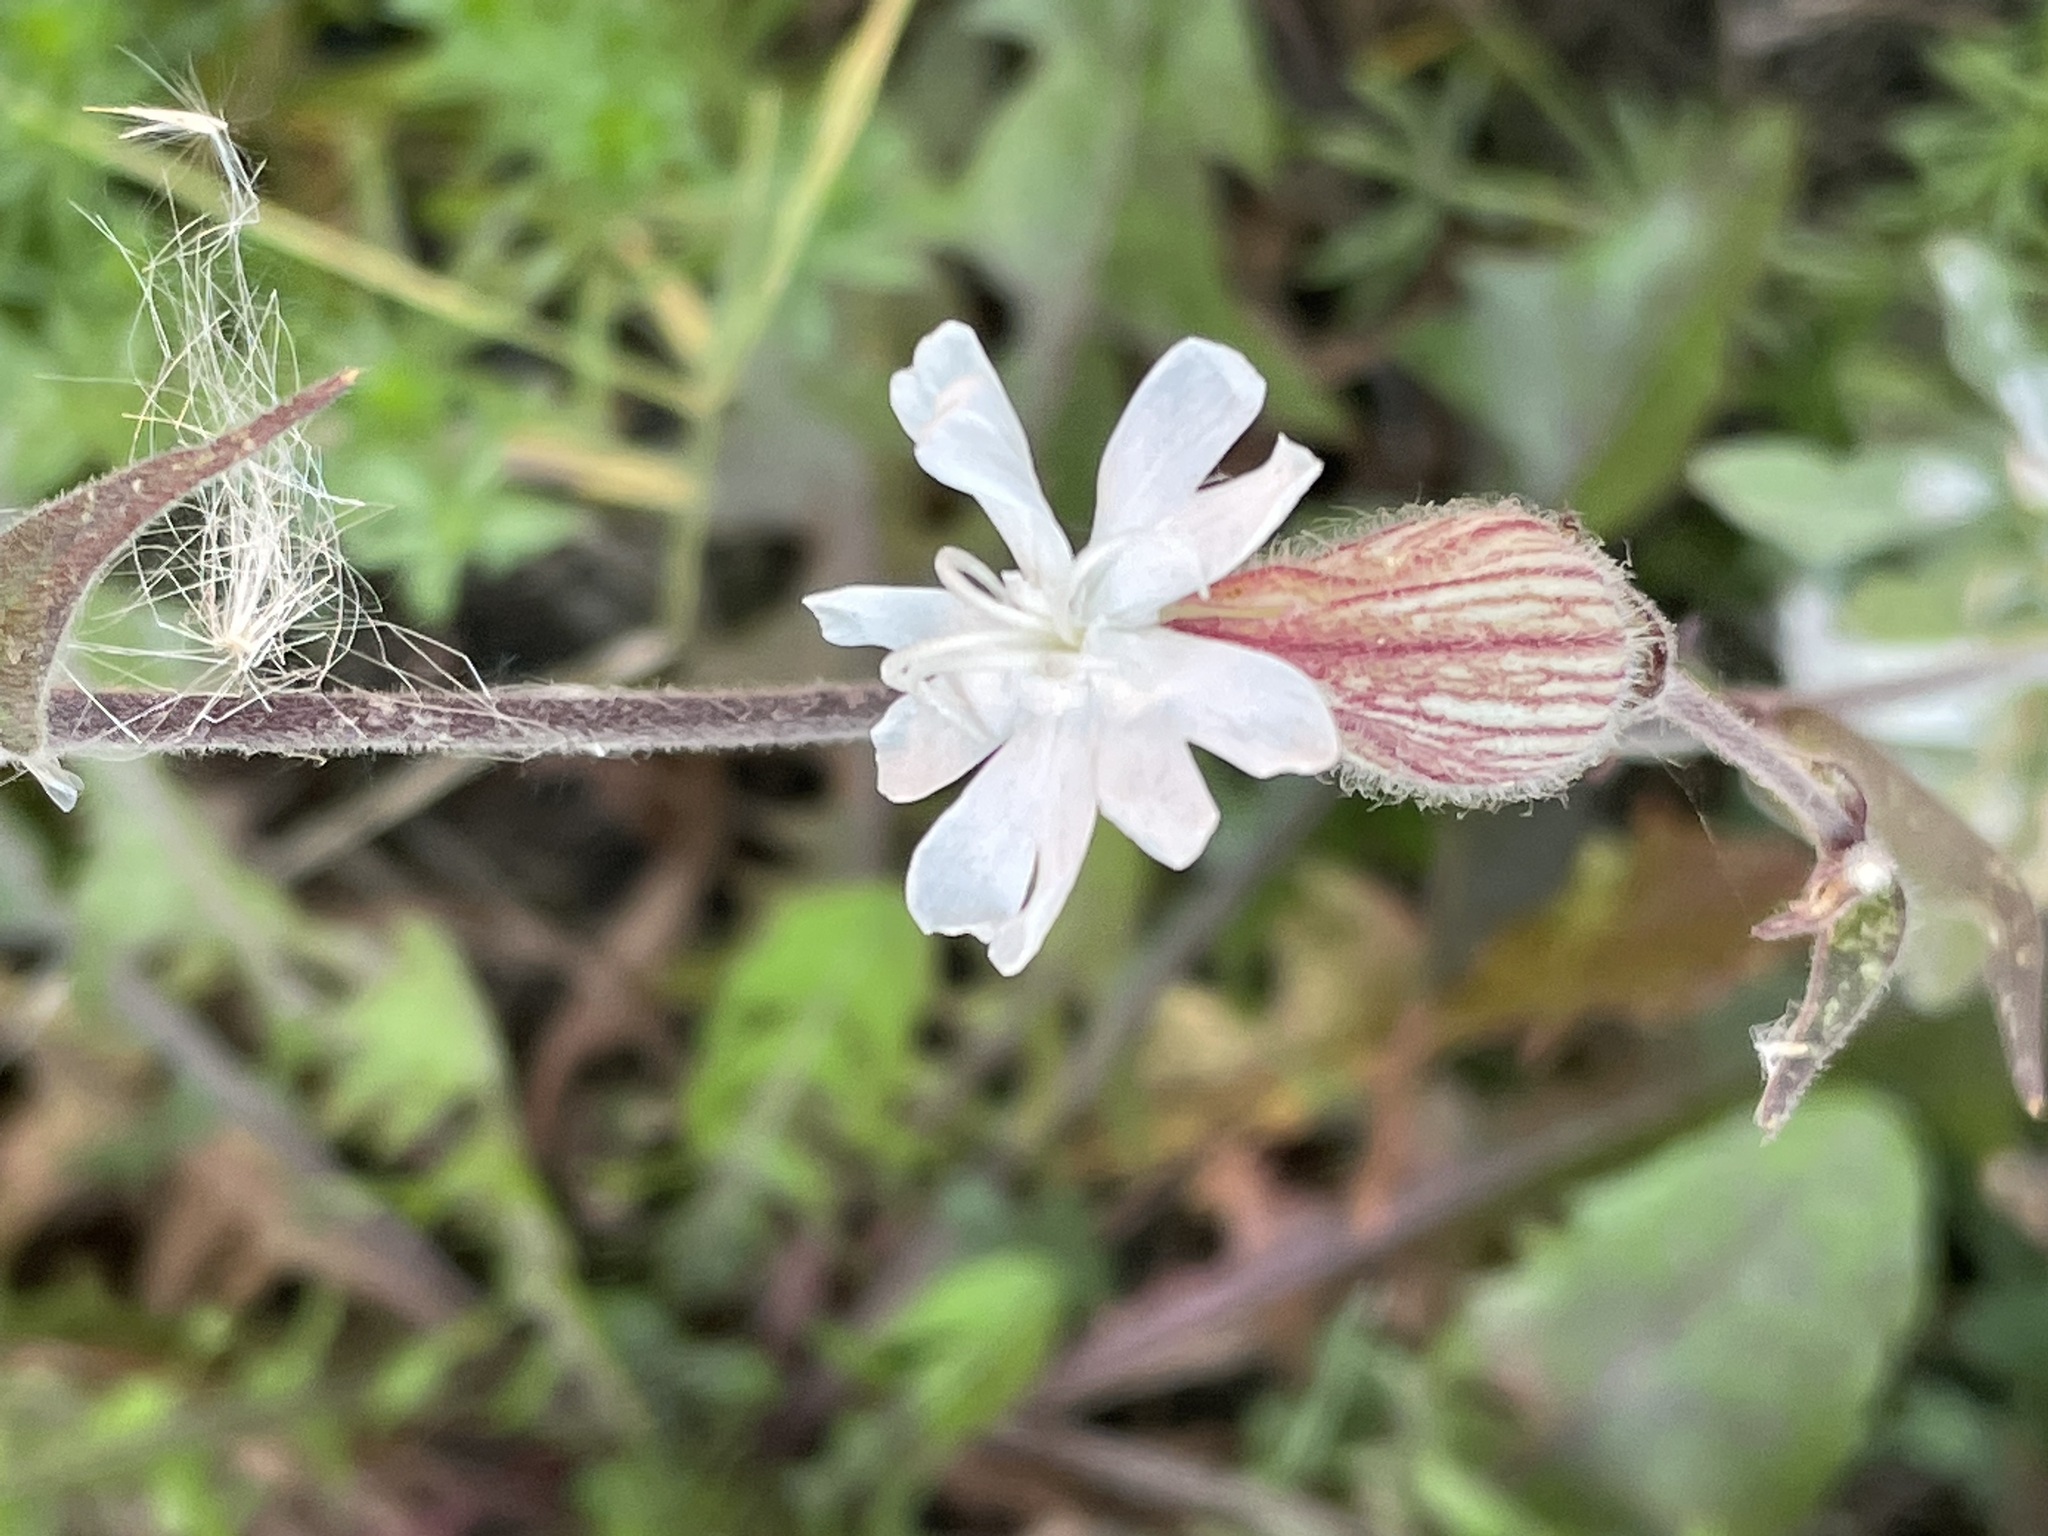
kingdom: Plantae
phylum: Tracheophyta
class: Magnoliopsida
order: Caryophyllales
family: Caryophyllaceae
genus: Silene
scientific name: Silene latifolia
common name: White campion
